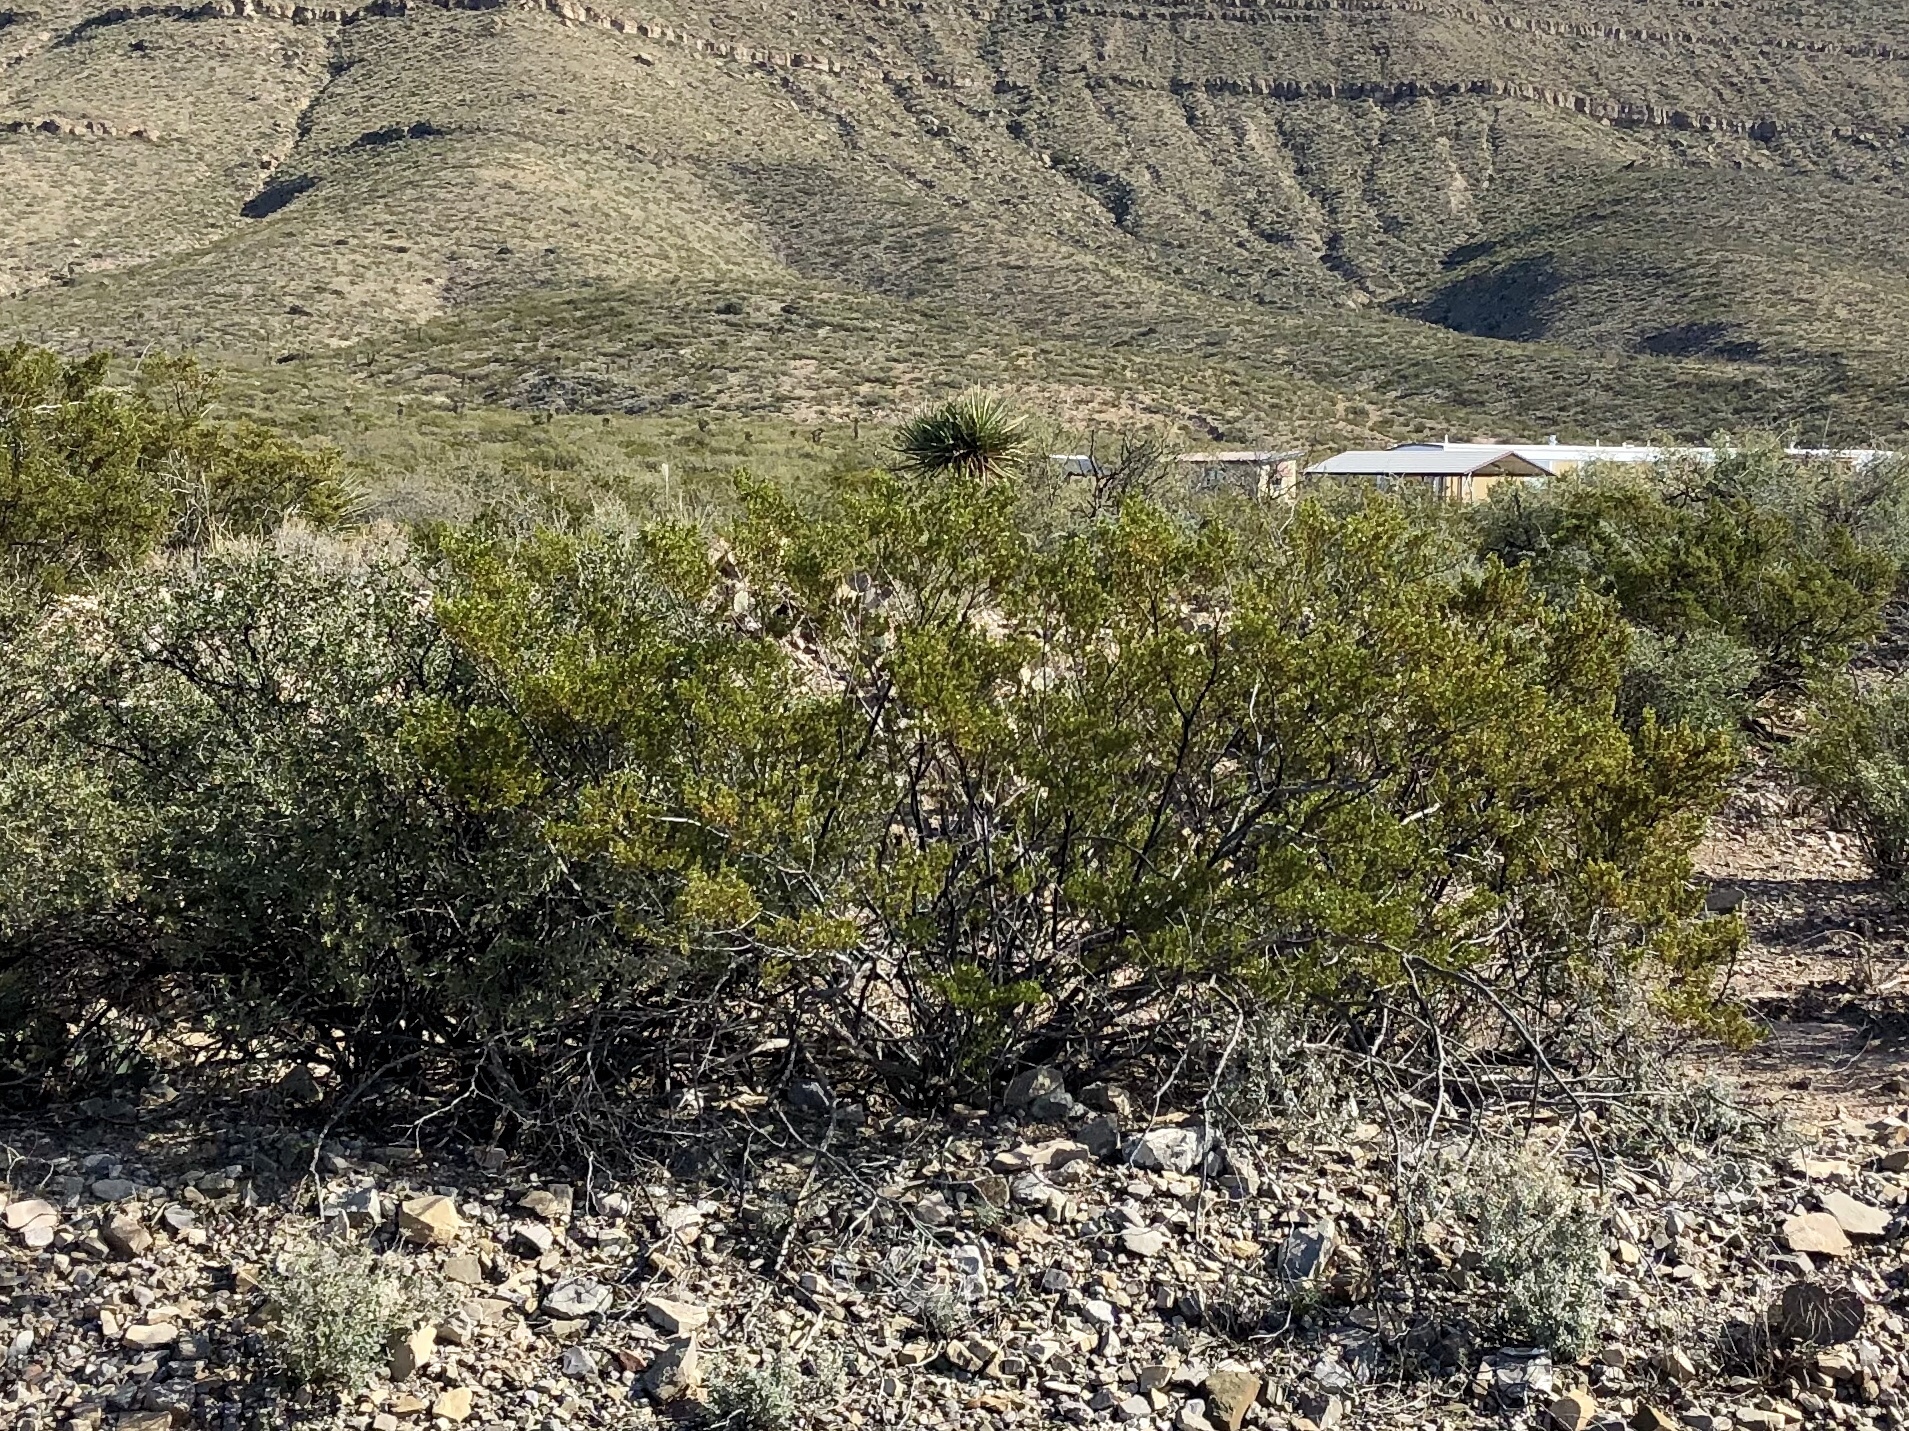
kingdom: Plantae
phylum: Tracheophyta
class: Magnoliopsida
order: Zygophyllales
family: Zygophyllaceae
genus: Larrea
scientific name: Larrea tridentata
